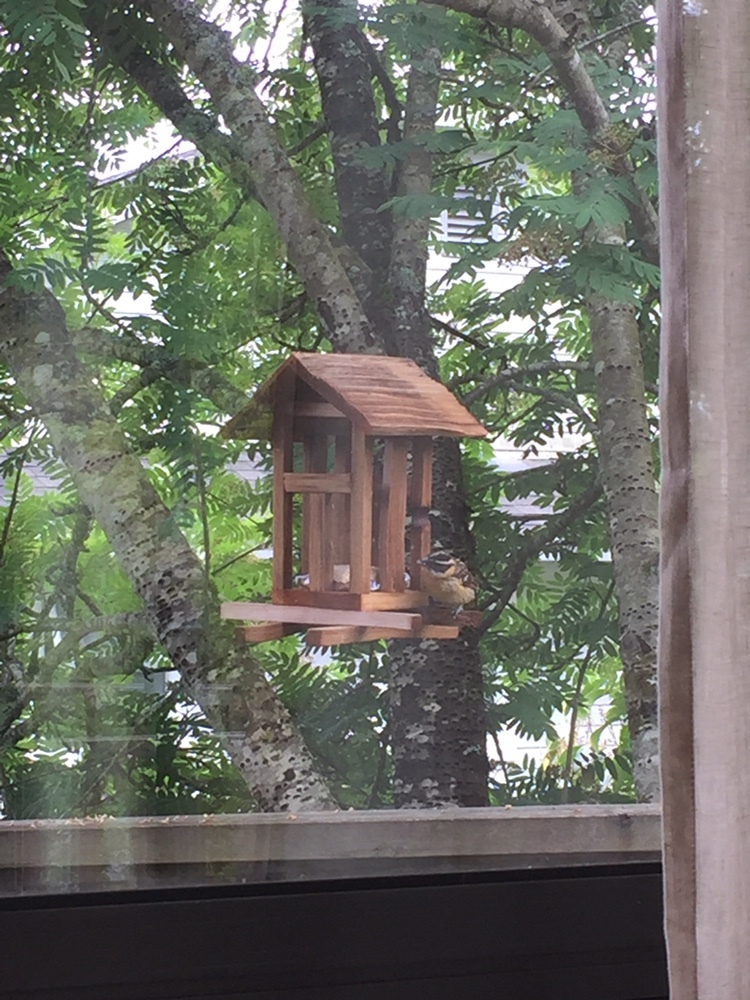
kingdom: Animalia
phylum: Chordata
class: Aves
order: Passeriformes
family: Cardinalidae
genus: Pheucticus
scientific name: Pheucticus melanocephalus
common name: Black-headed grosbeak
